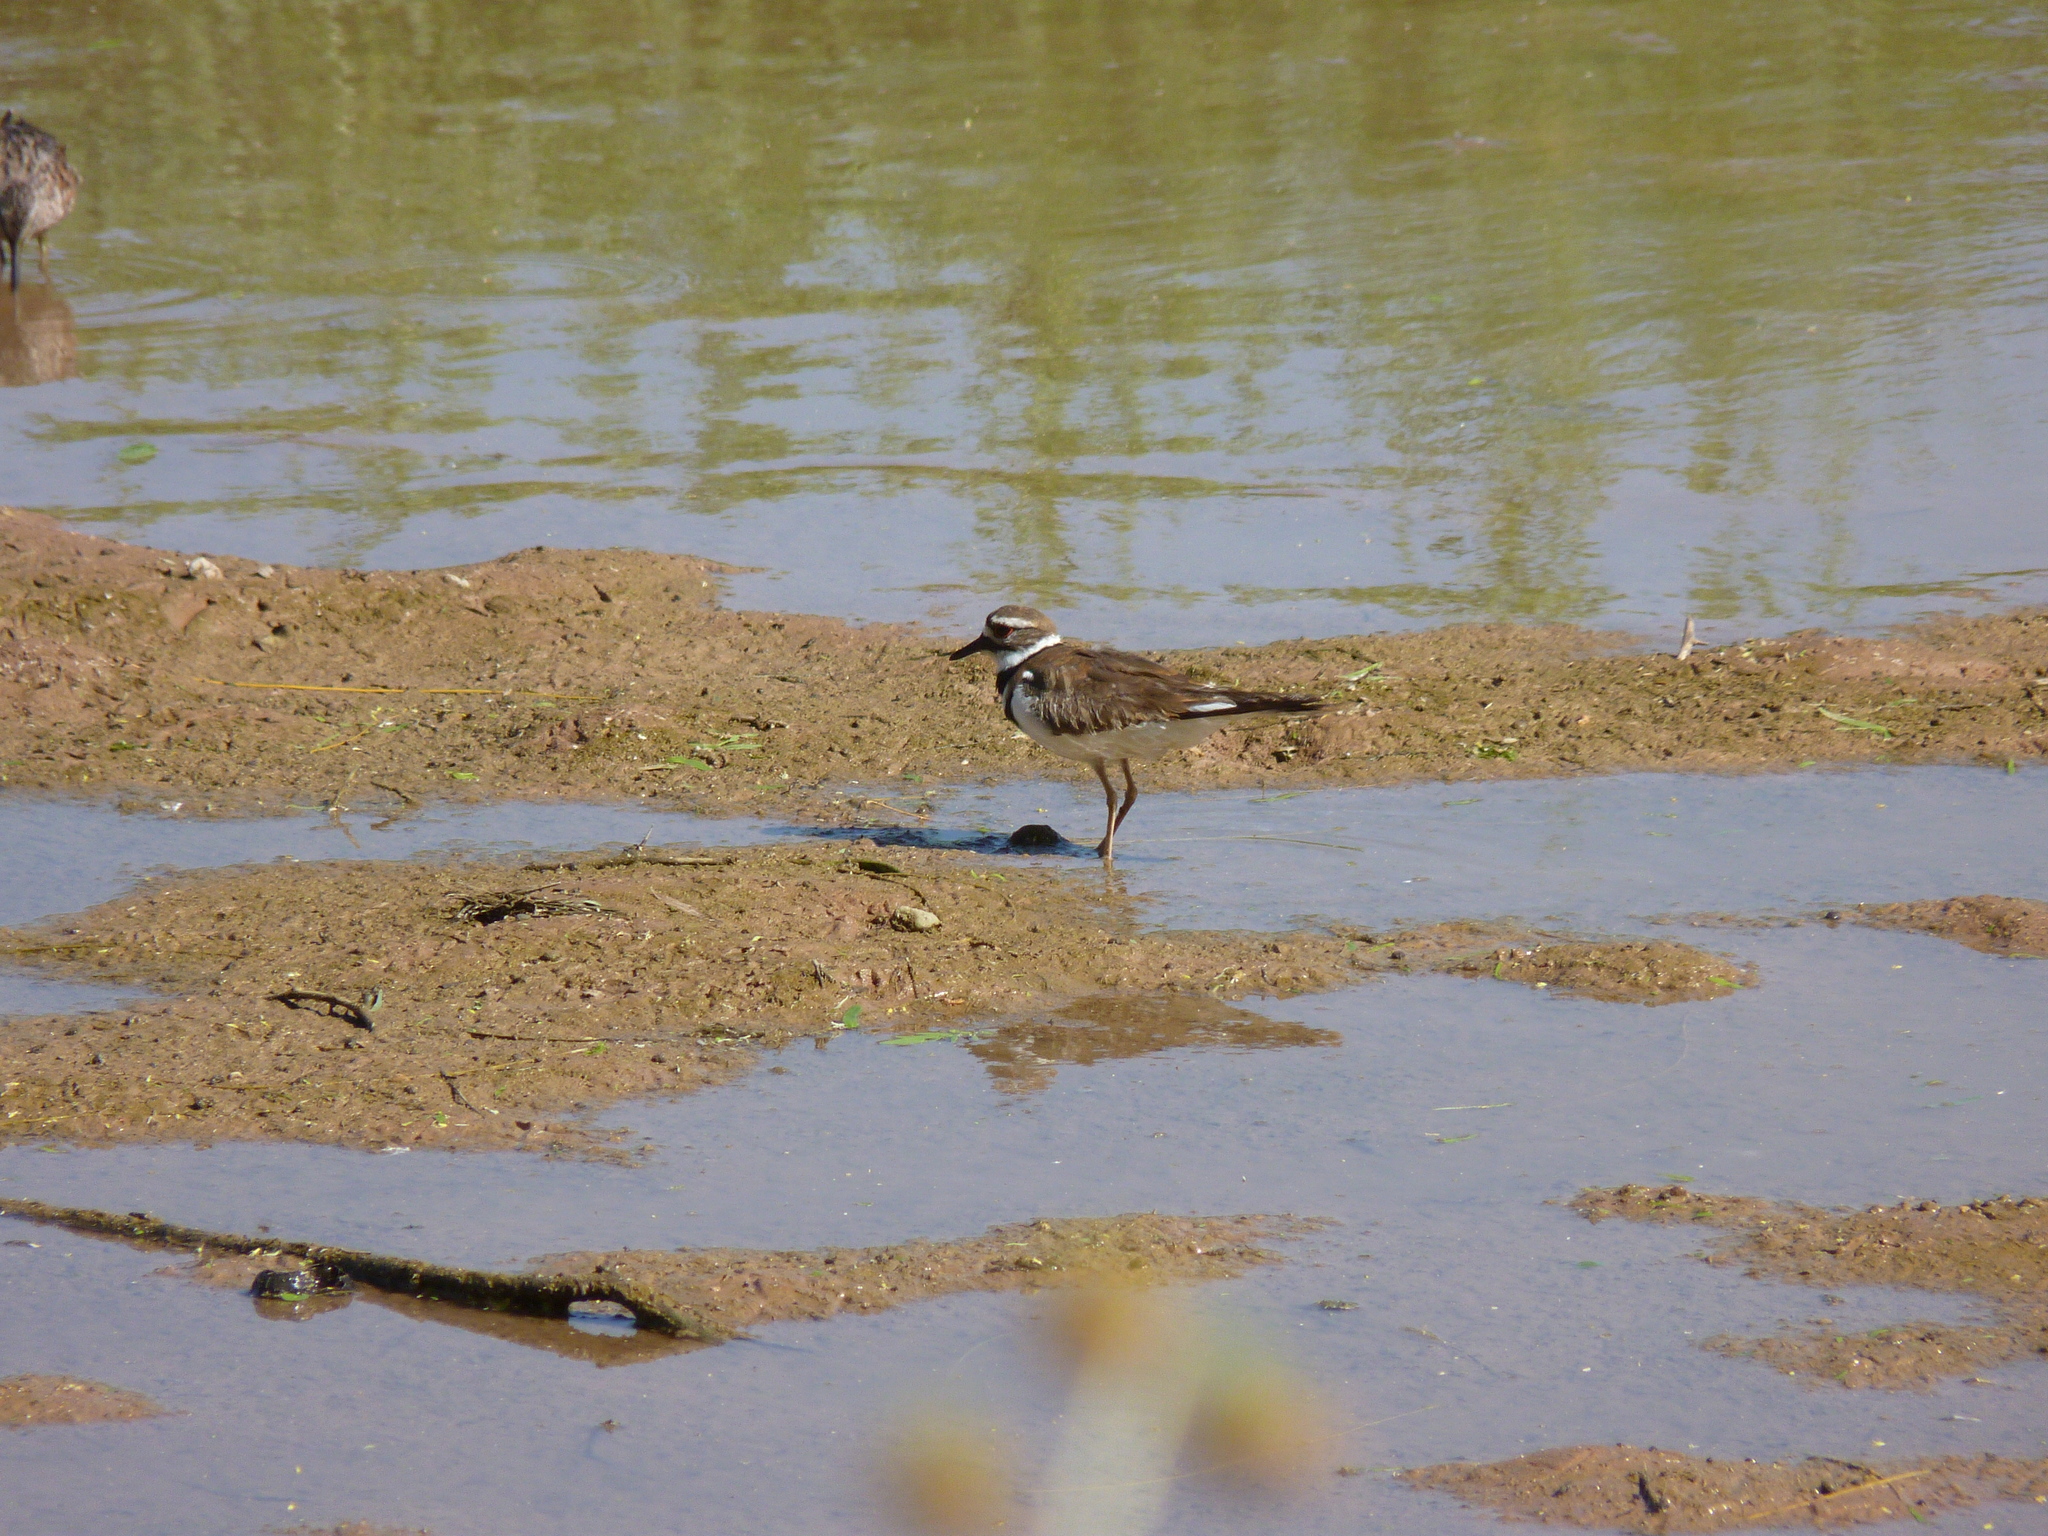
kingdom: Animalia
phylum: Chordata
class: Aves
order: Charadriiformes
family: Charadriidae
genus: Charadrius
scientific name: Charadrius vociferus
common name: Killdeer
